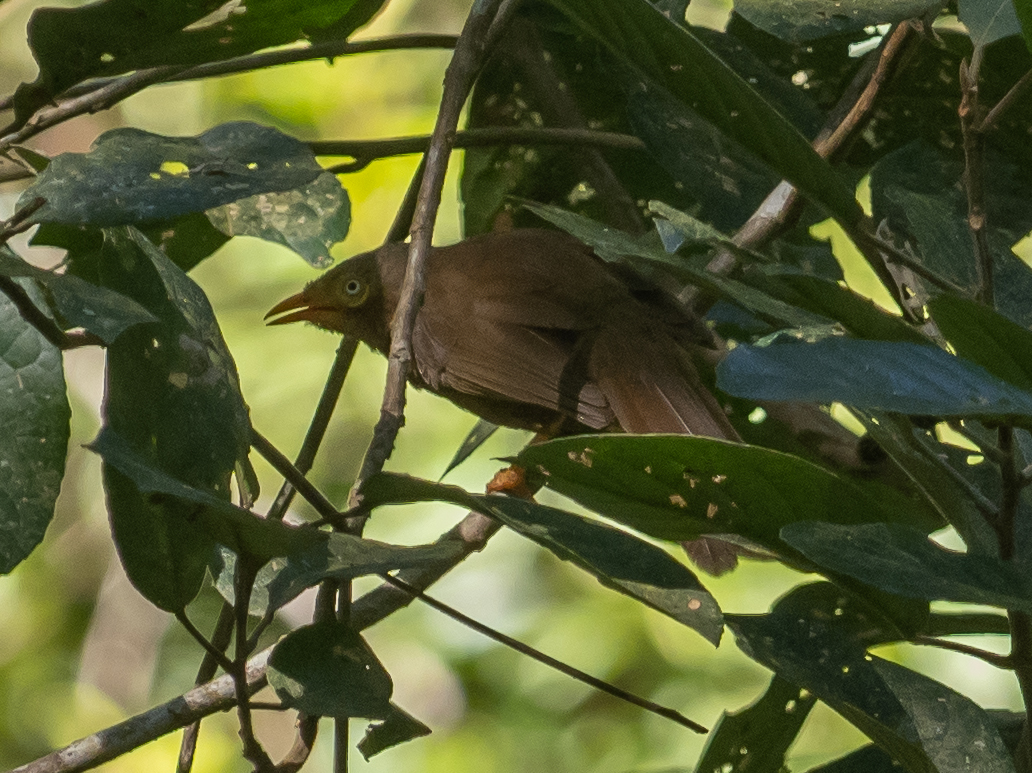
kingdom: Animalia
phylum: Chordata
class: Aves
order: Passeriformes
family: Leiothrichidae
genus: Turdoides
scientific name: Turdoides rufescens
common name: Orange-billed babbler
